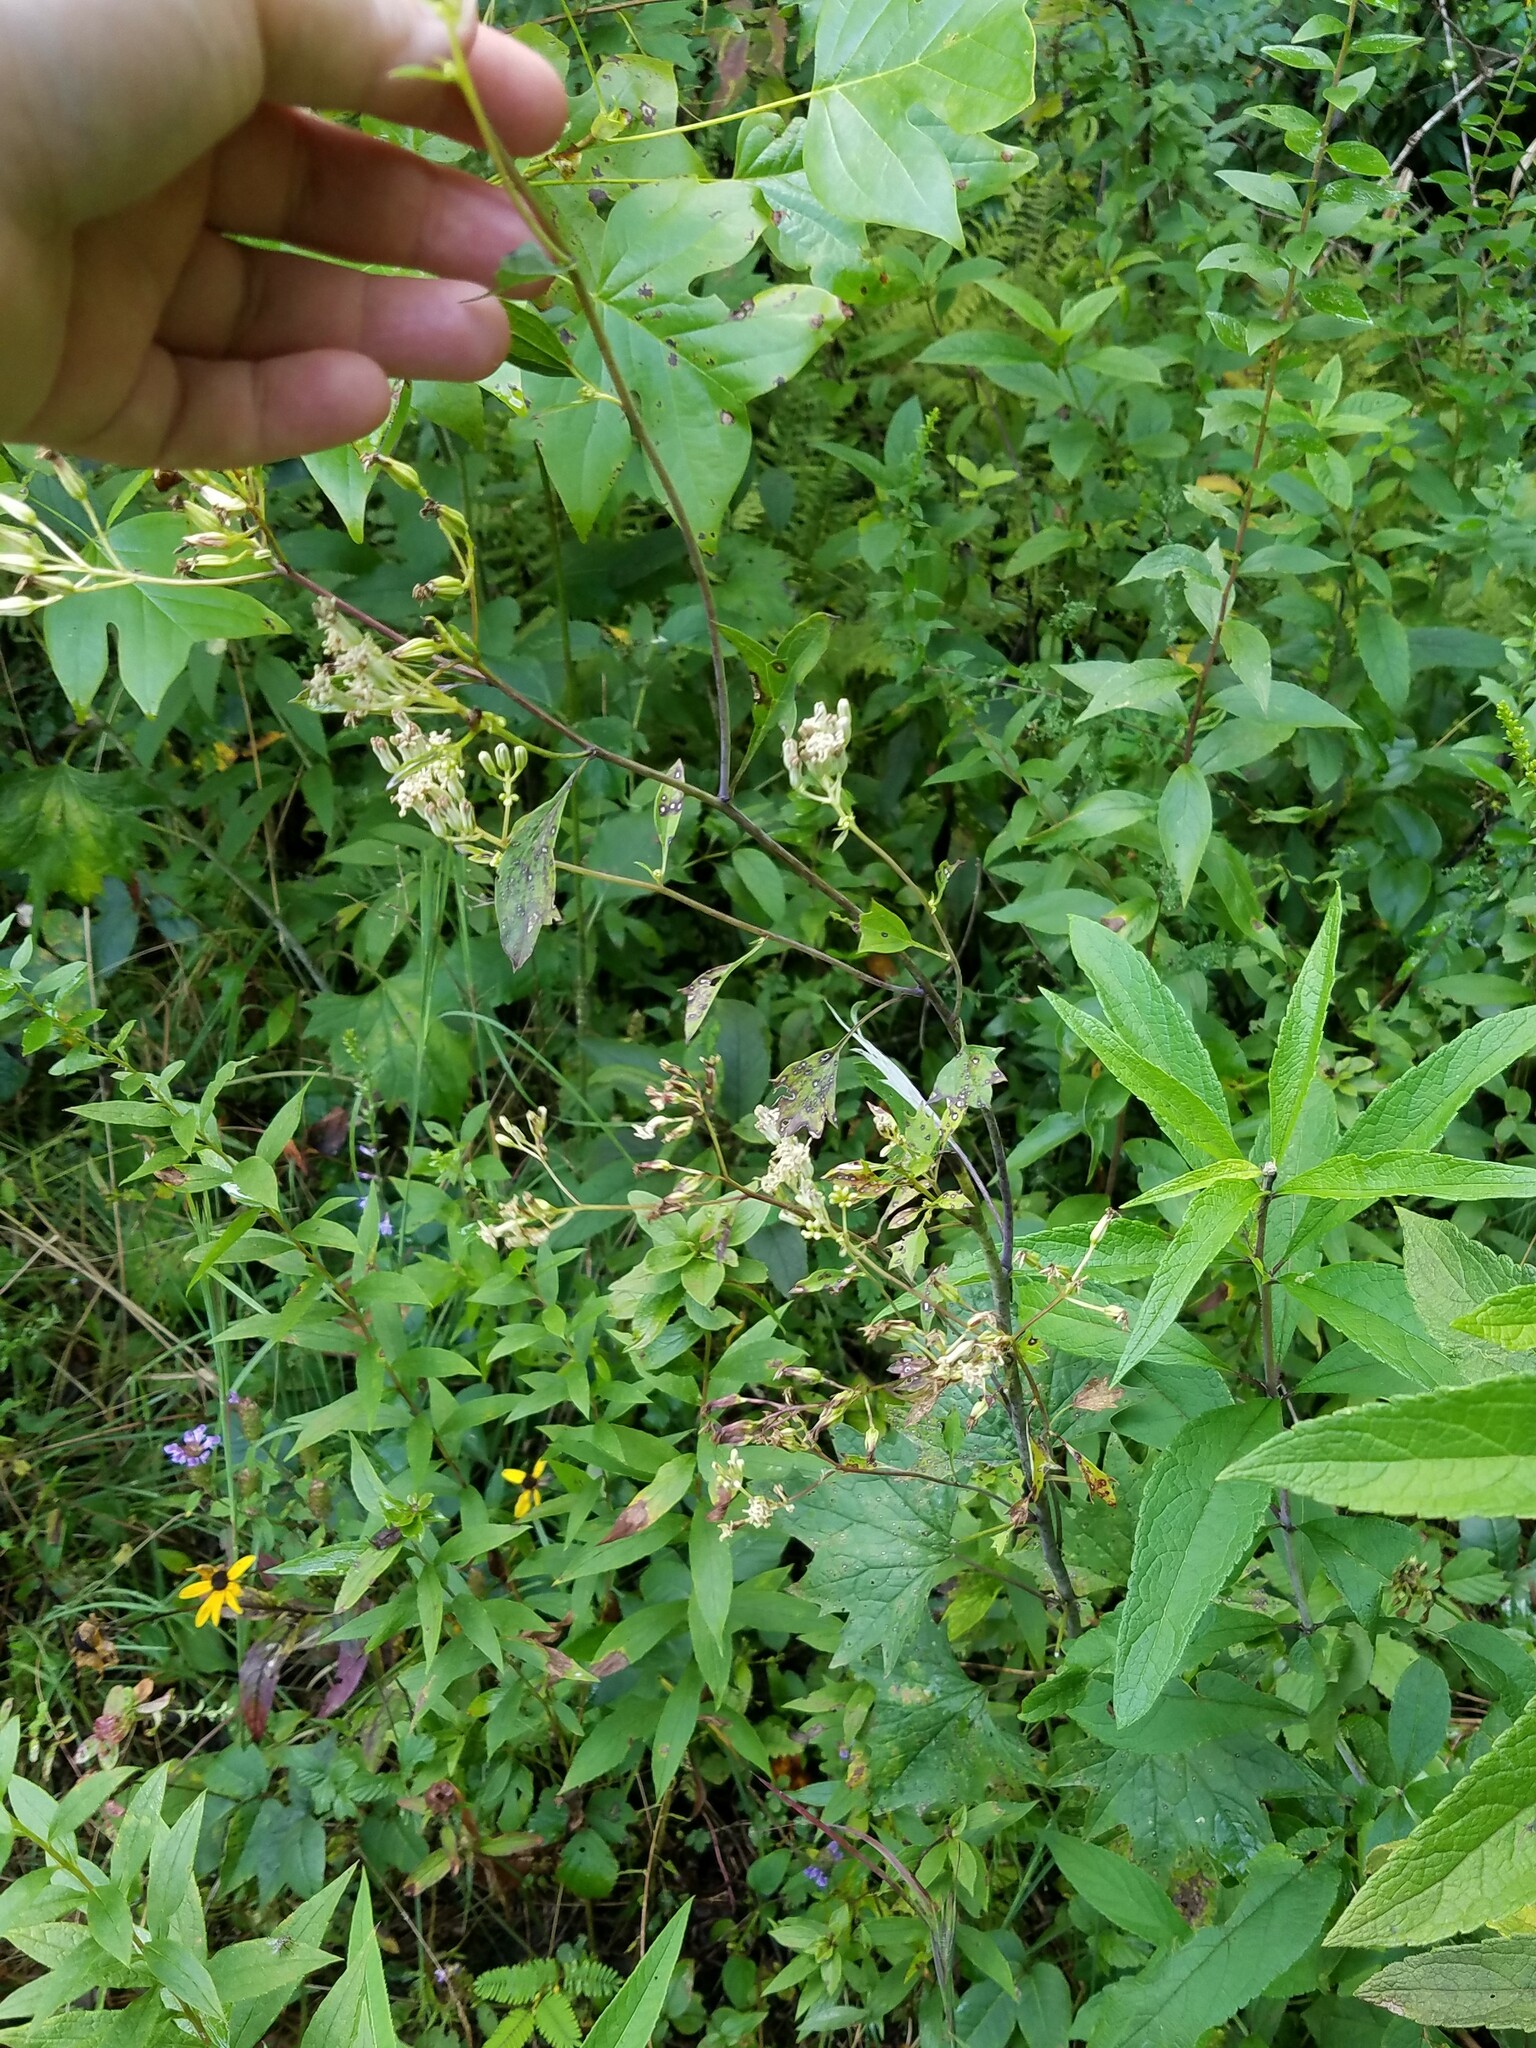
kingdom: Plantae
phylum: Tracheophyta
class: Magnoliopsida
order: Asterales
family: Asteraceae
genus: Arnoglossum
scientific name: Arnoglossum atriplicifolium
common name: Pale indian-plantain
